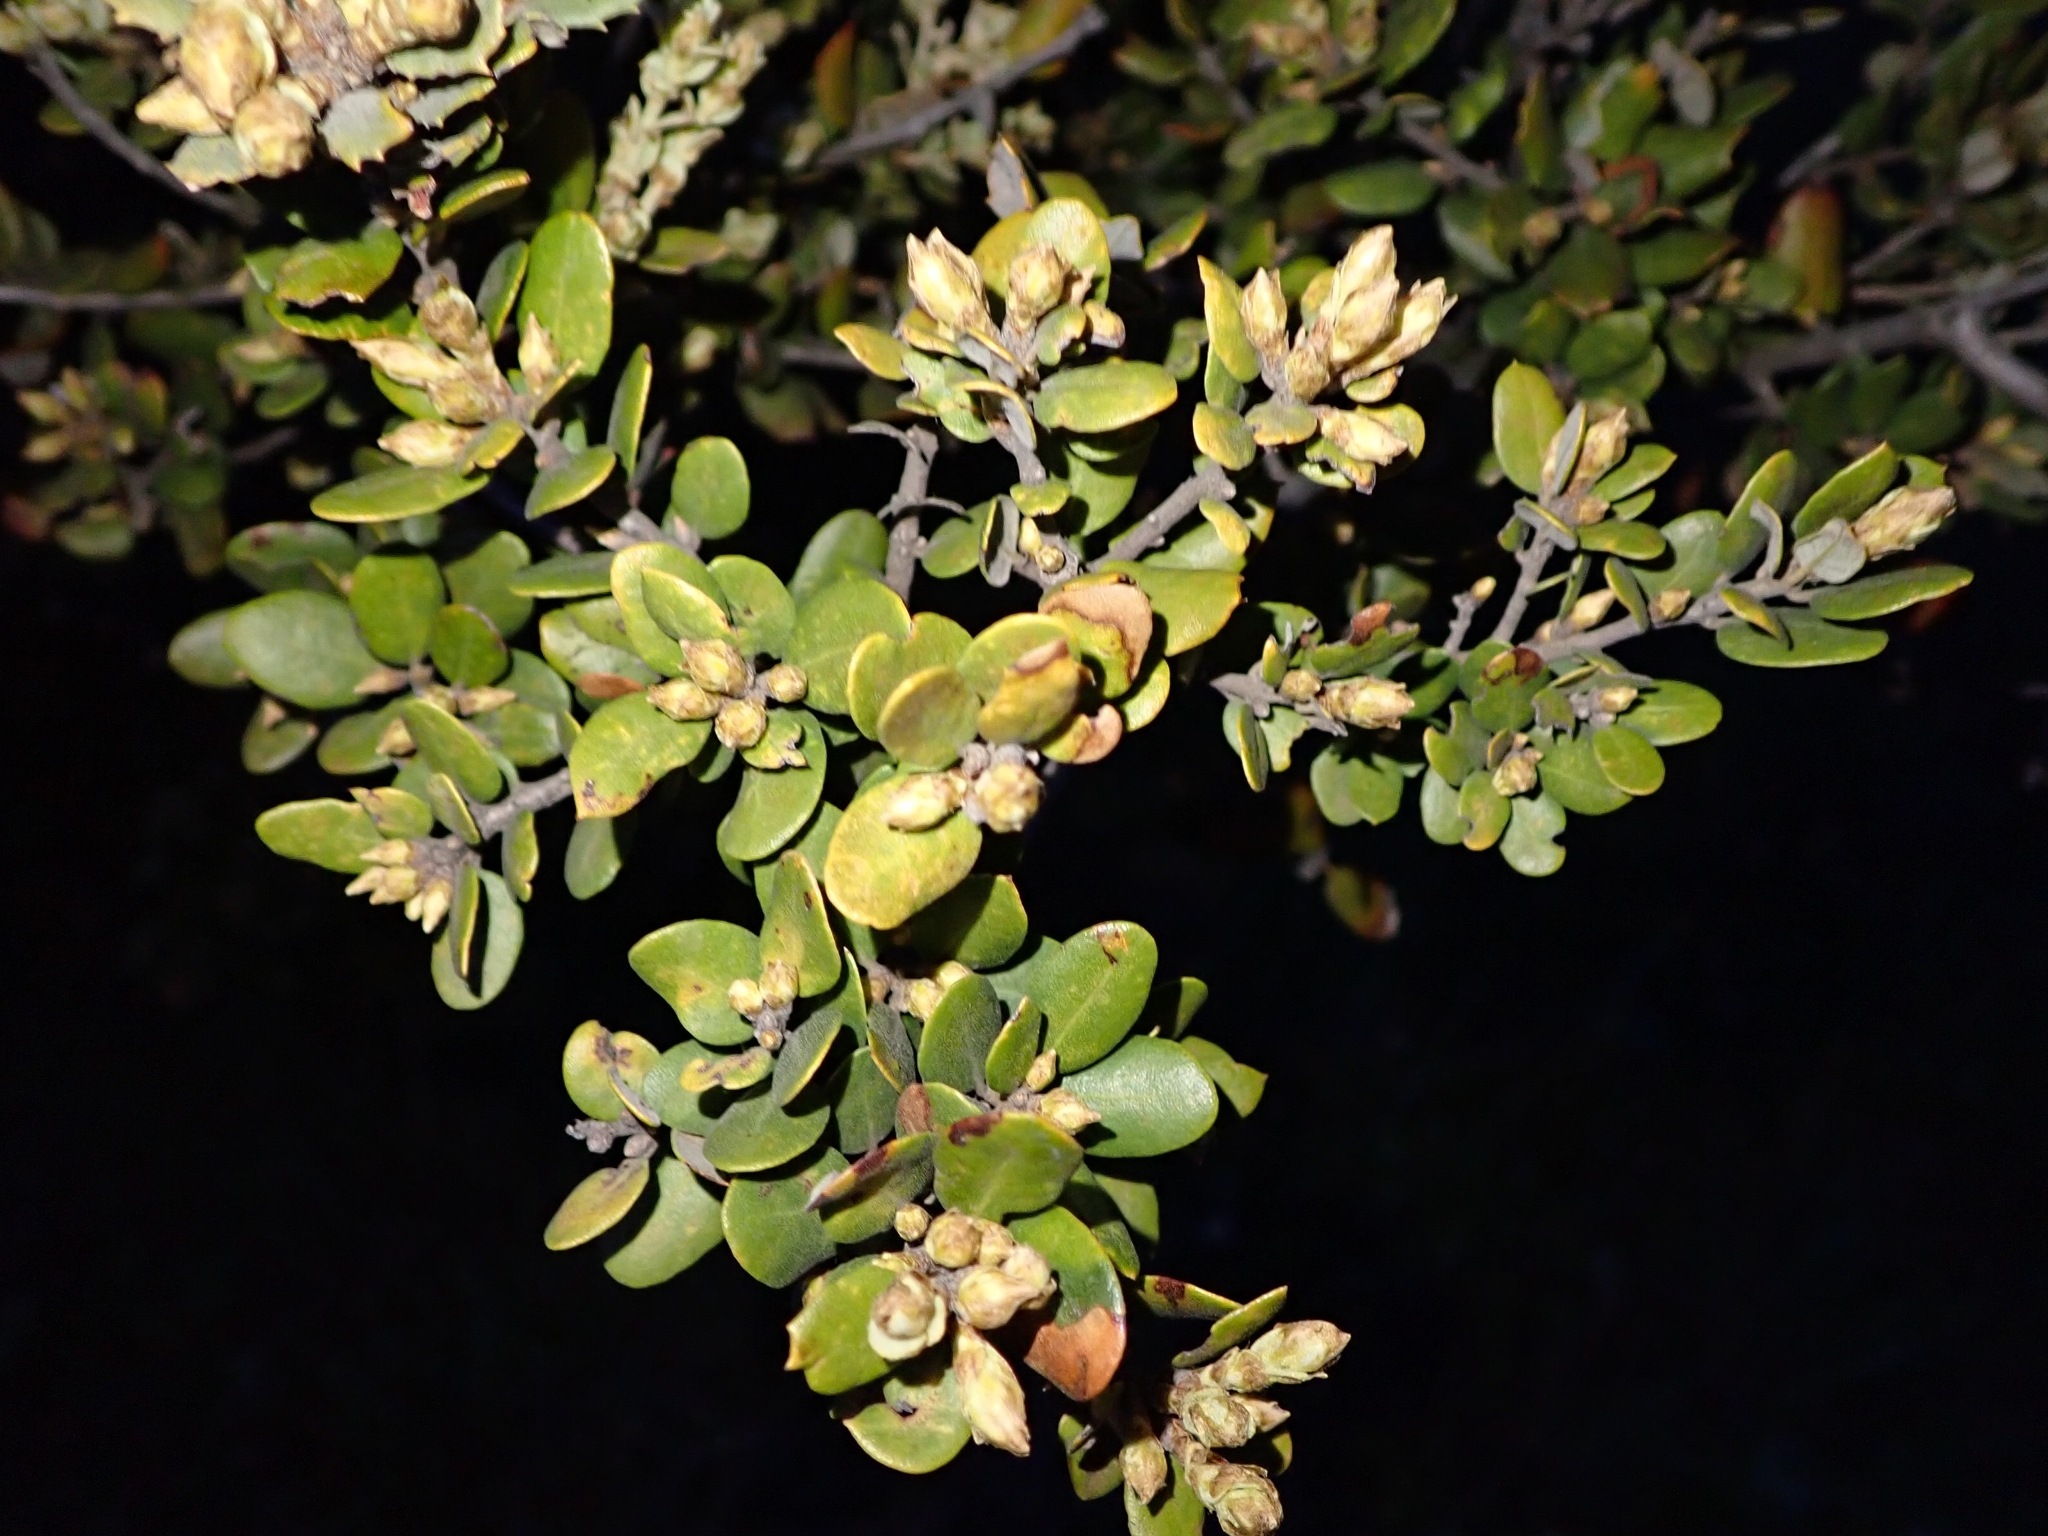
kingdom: Plantae
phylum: Tracheophyta
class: Magnoliopsida
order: Fagales
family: Fagaceae
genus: Quercus
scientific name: Quercus rotundifolia
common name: Holm oak
